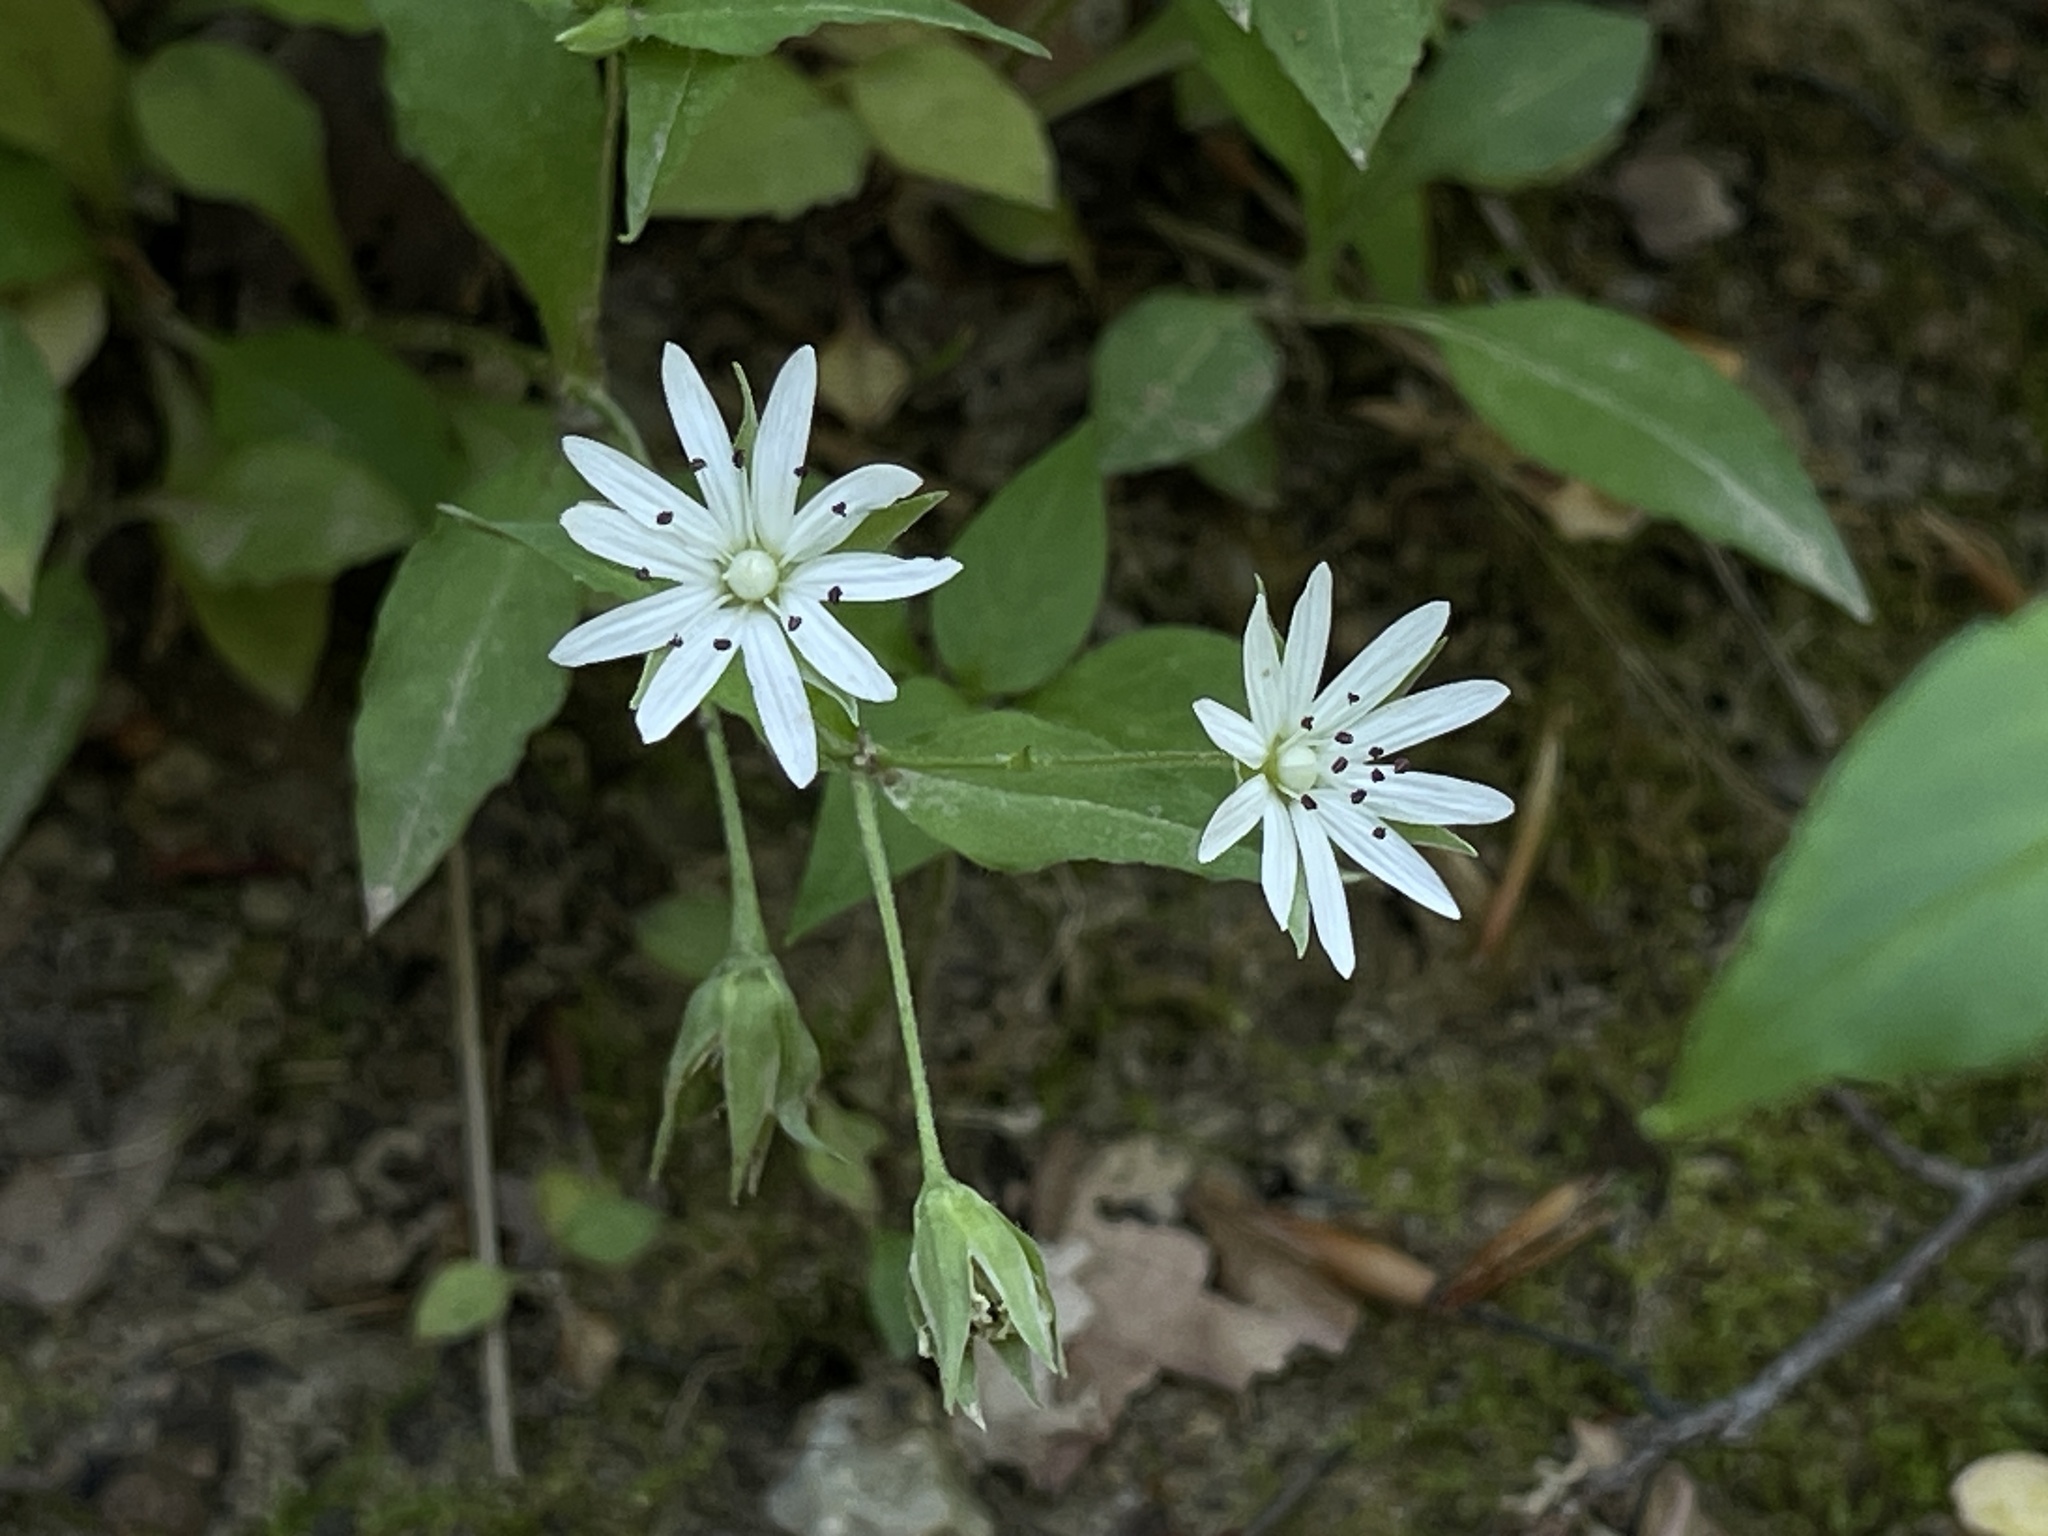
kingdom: Plantae
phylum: Tracheophyta
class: Magnoliopsida
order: Caryophyllales
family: Caryophyllaceae
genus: Stellaria
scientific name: Stellaria pubera
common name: Star chickweed
